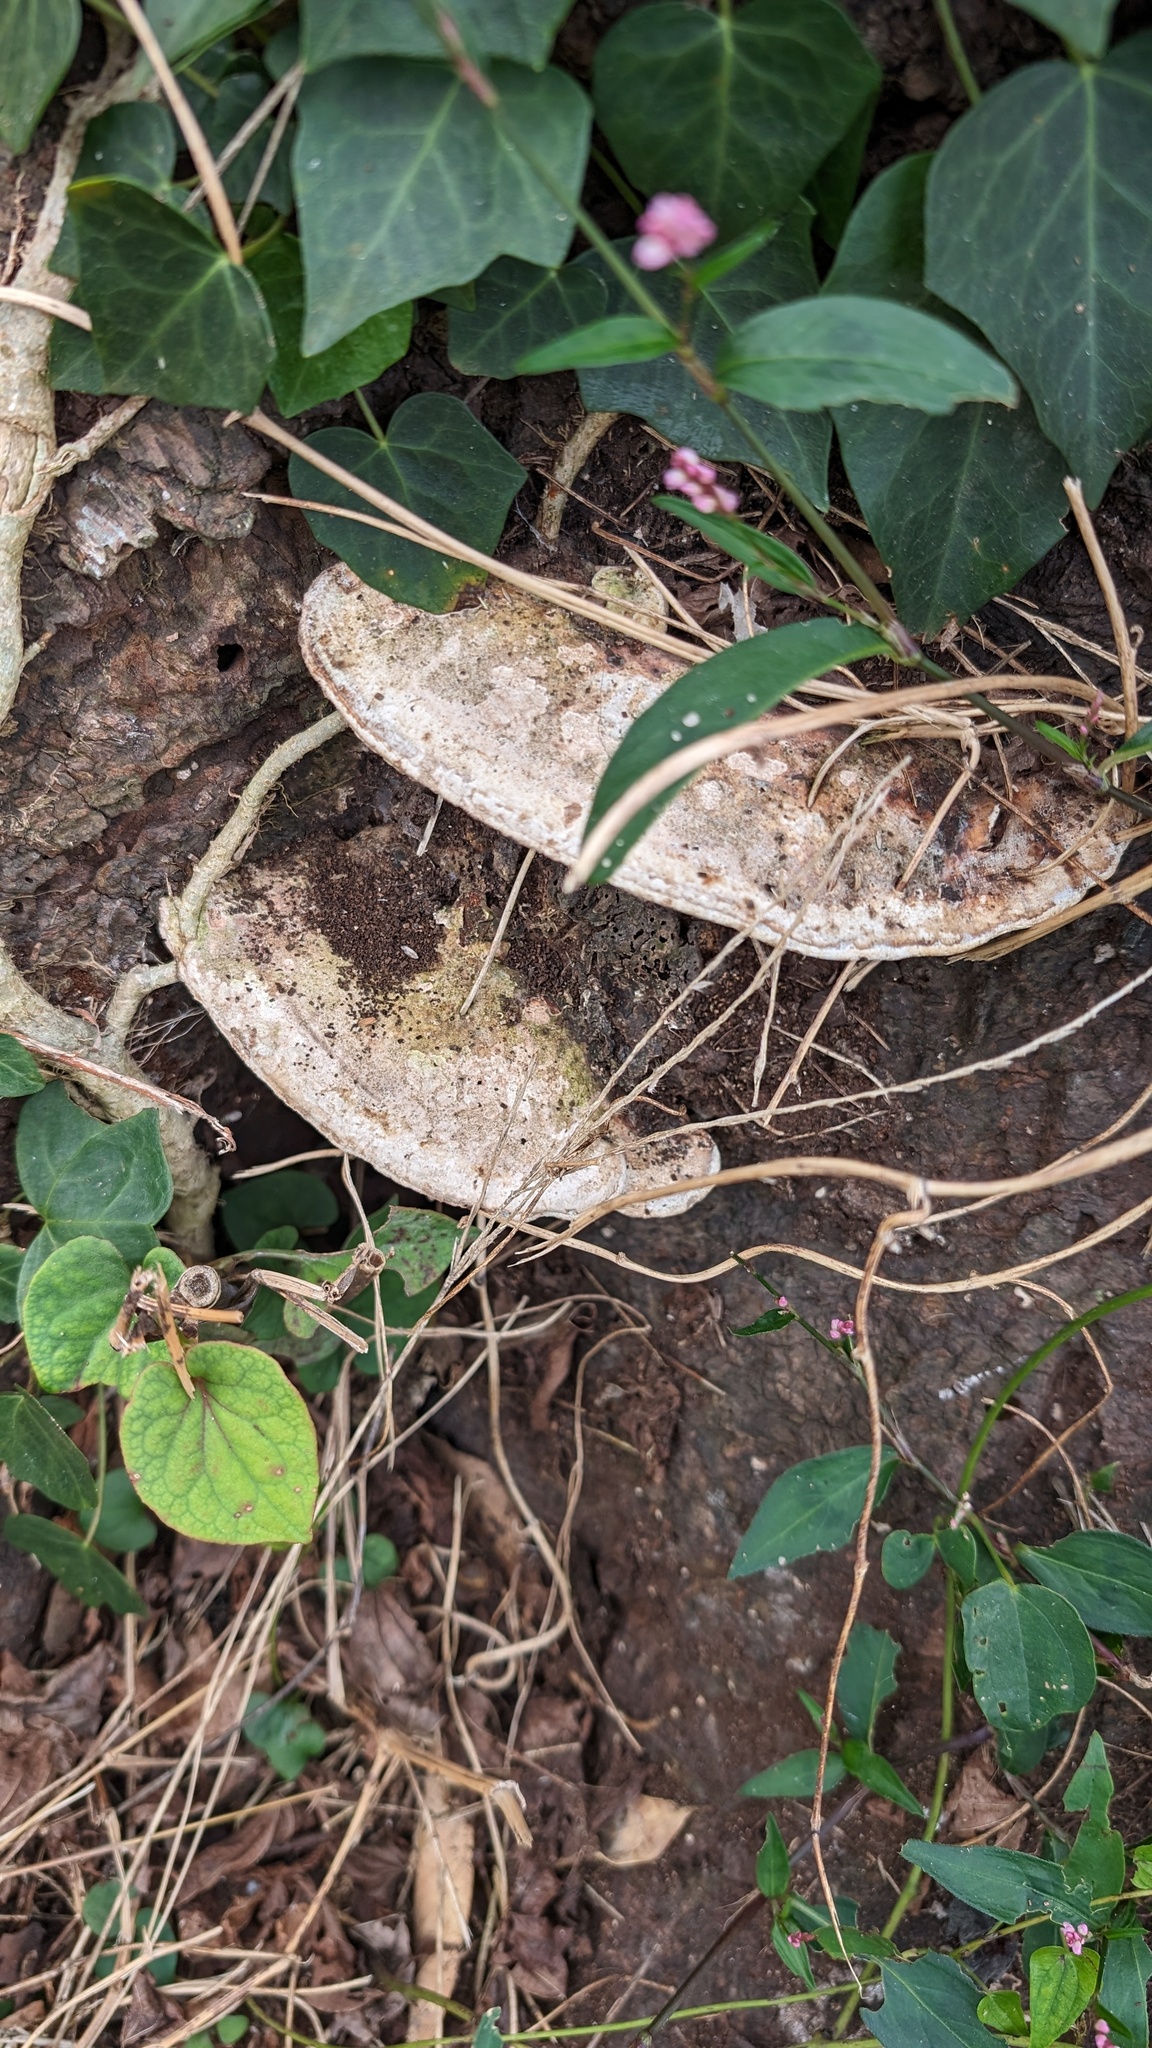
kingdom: Fungi
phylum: Basidiomycota
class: Agaricomycetes
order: Polyporales
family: Polyporaceae
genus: Vanderbylia
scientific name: Vanderbylia fraxinea
